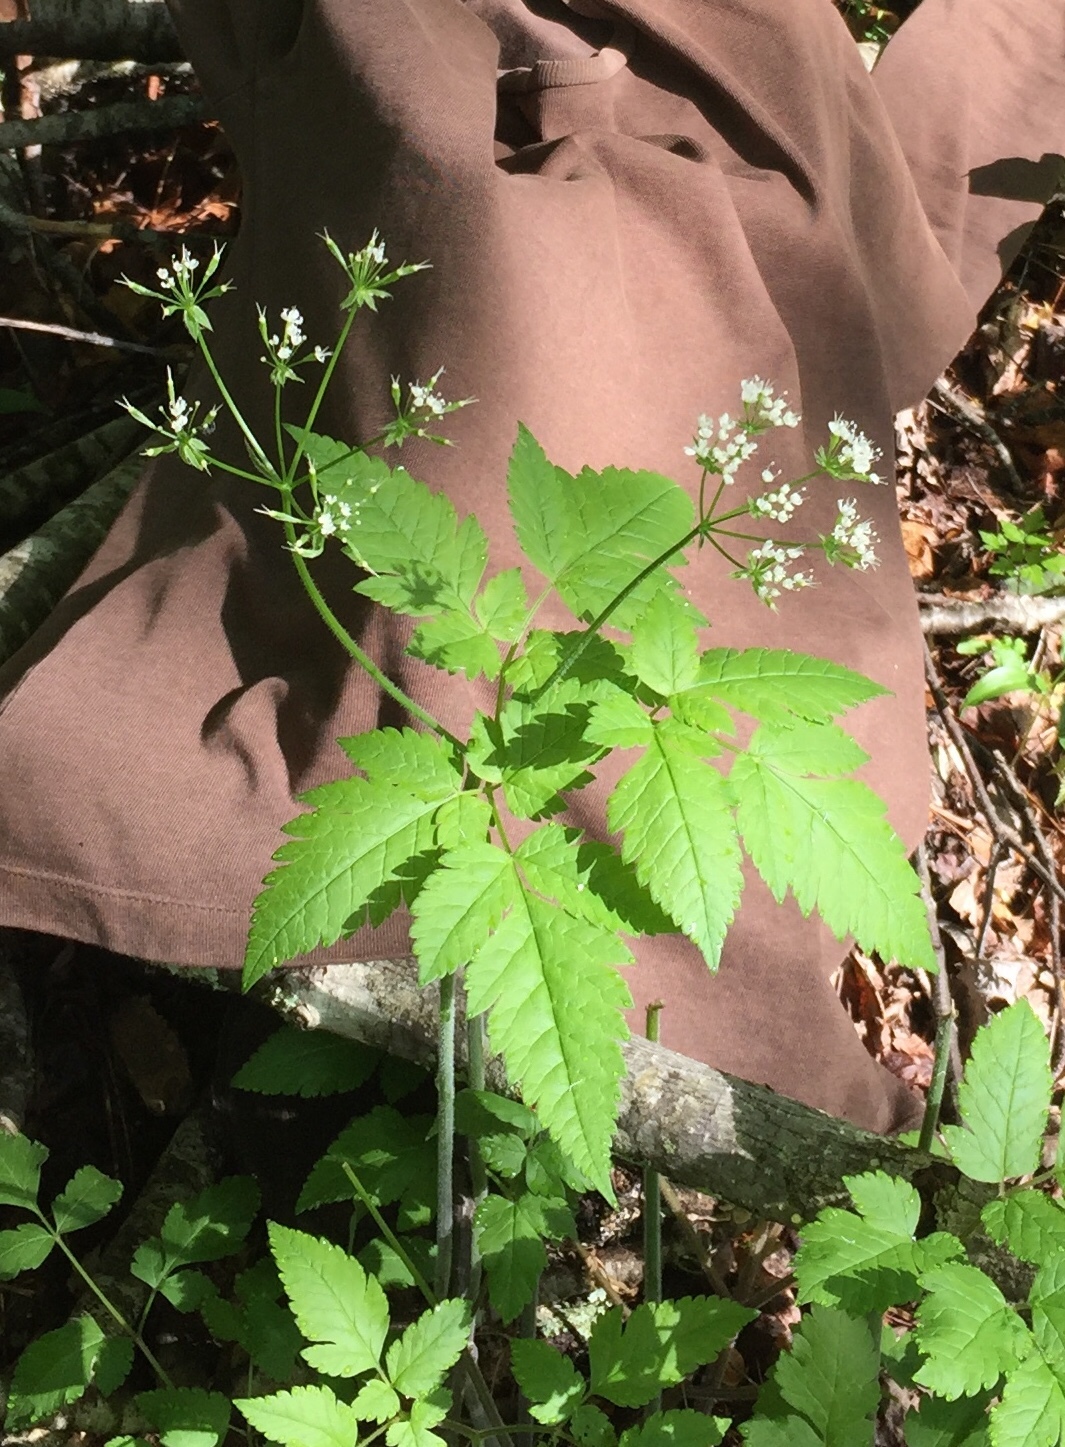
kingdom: Plantae
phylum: Tracheophyta
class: Magnoliopsida
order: Apiales
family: Apiaceae
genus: Osmorhiza
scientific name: Osmorhiza longistylis
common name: Smooth sweet cicely
